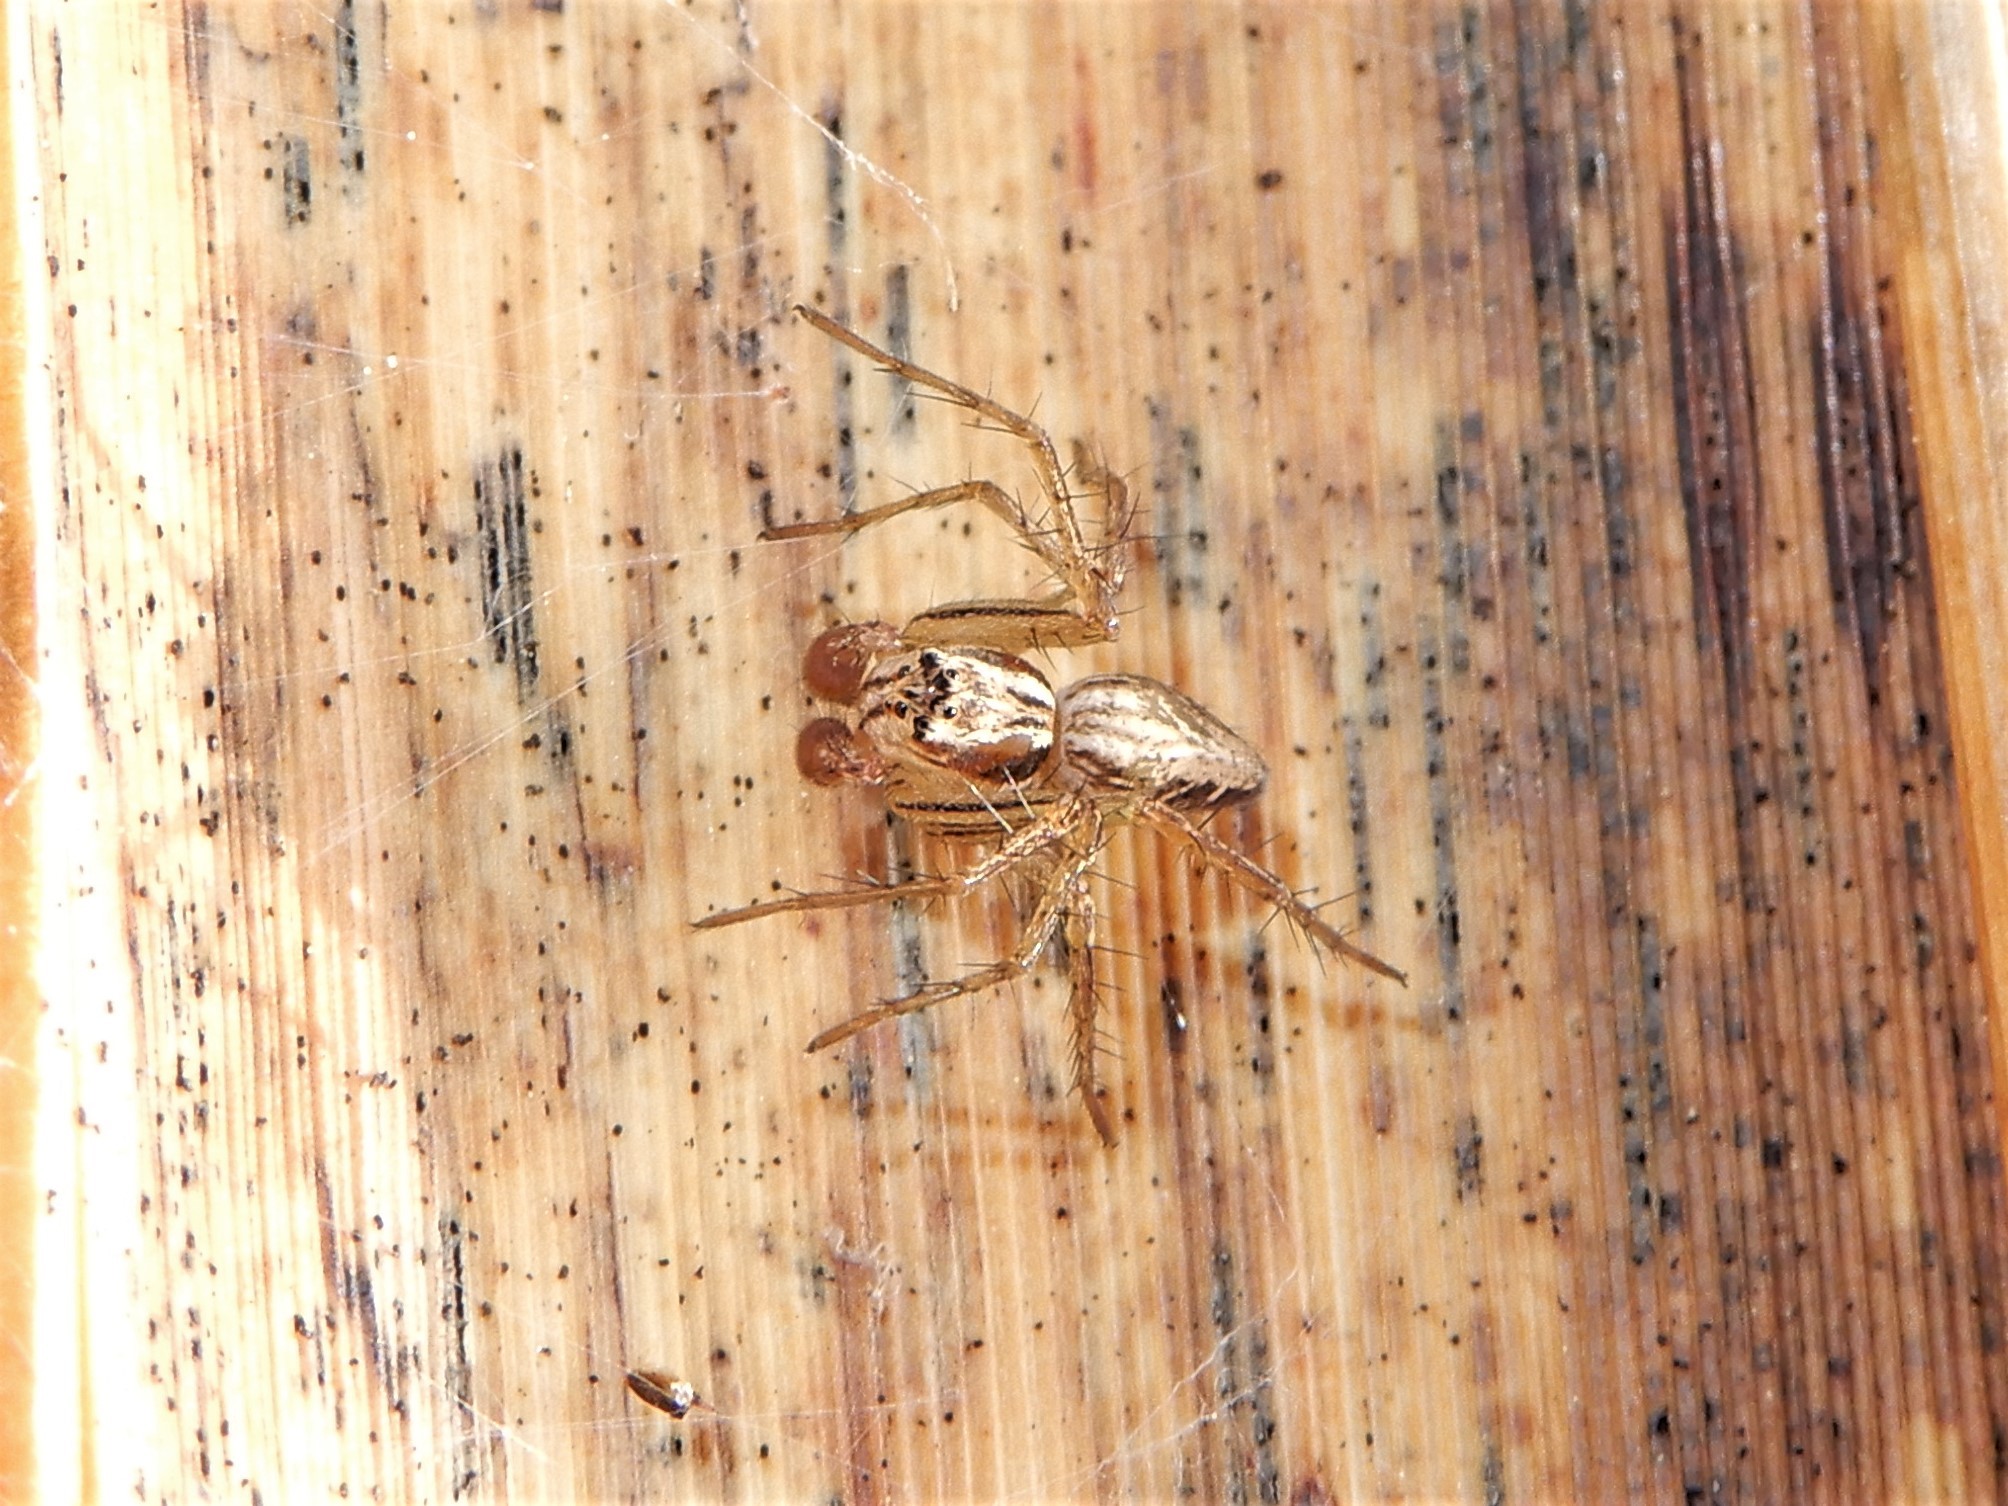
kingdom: Animalia
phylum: Arthropoda
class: Arachnida
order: Araneae
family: Oxyopidae
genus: Oxyopes
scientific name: Oxyopes gracilipes
